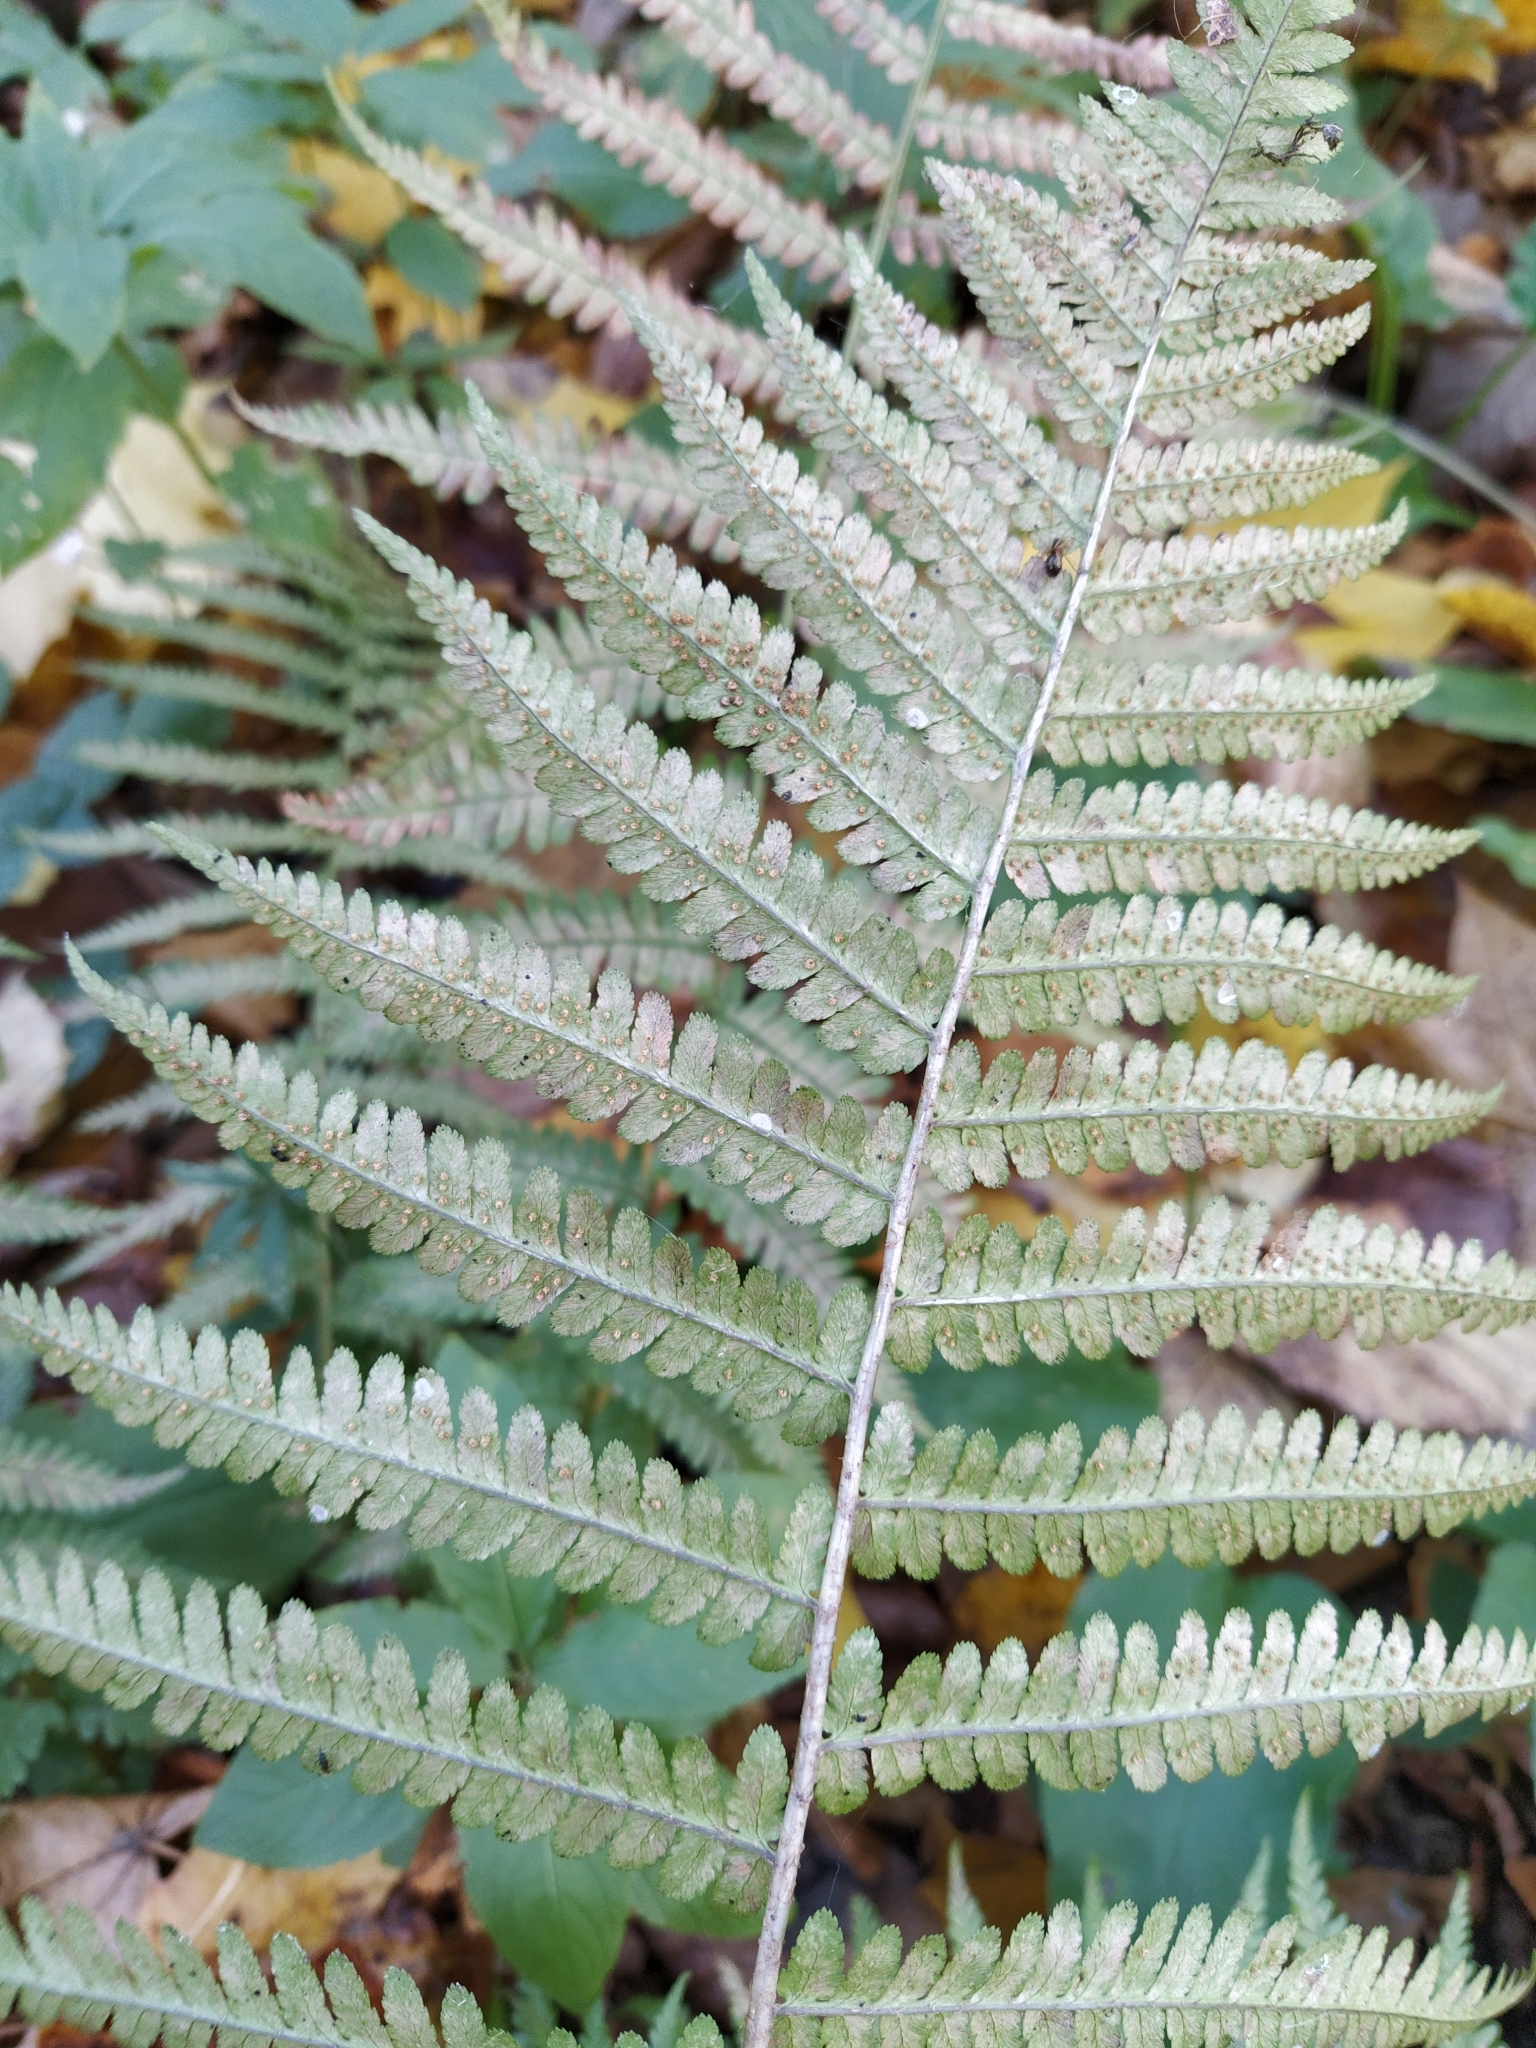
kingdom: Plantae
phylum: Tracheophyta
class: Polypodiopsida
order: Polypodiales
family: Dryopteridaceae
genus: Dryopteris
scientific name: Dryopteris filix-mas
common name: Male fern
